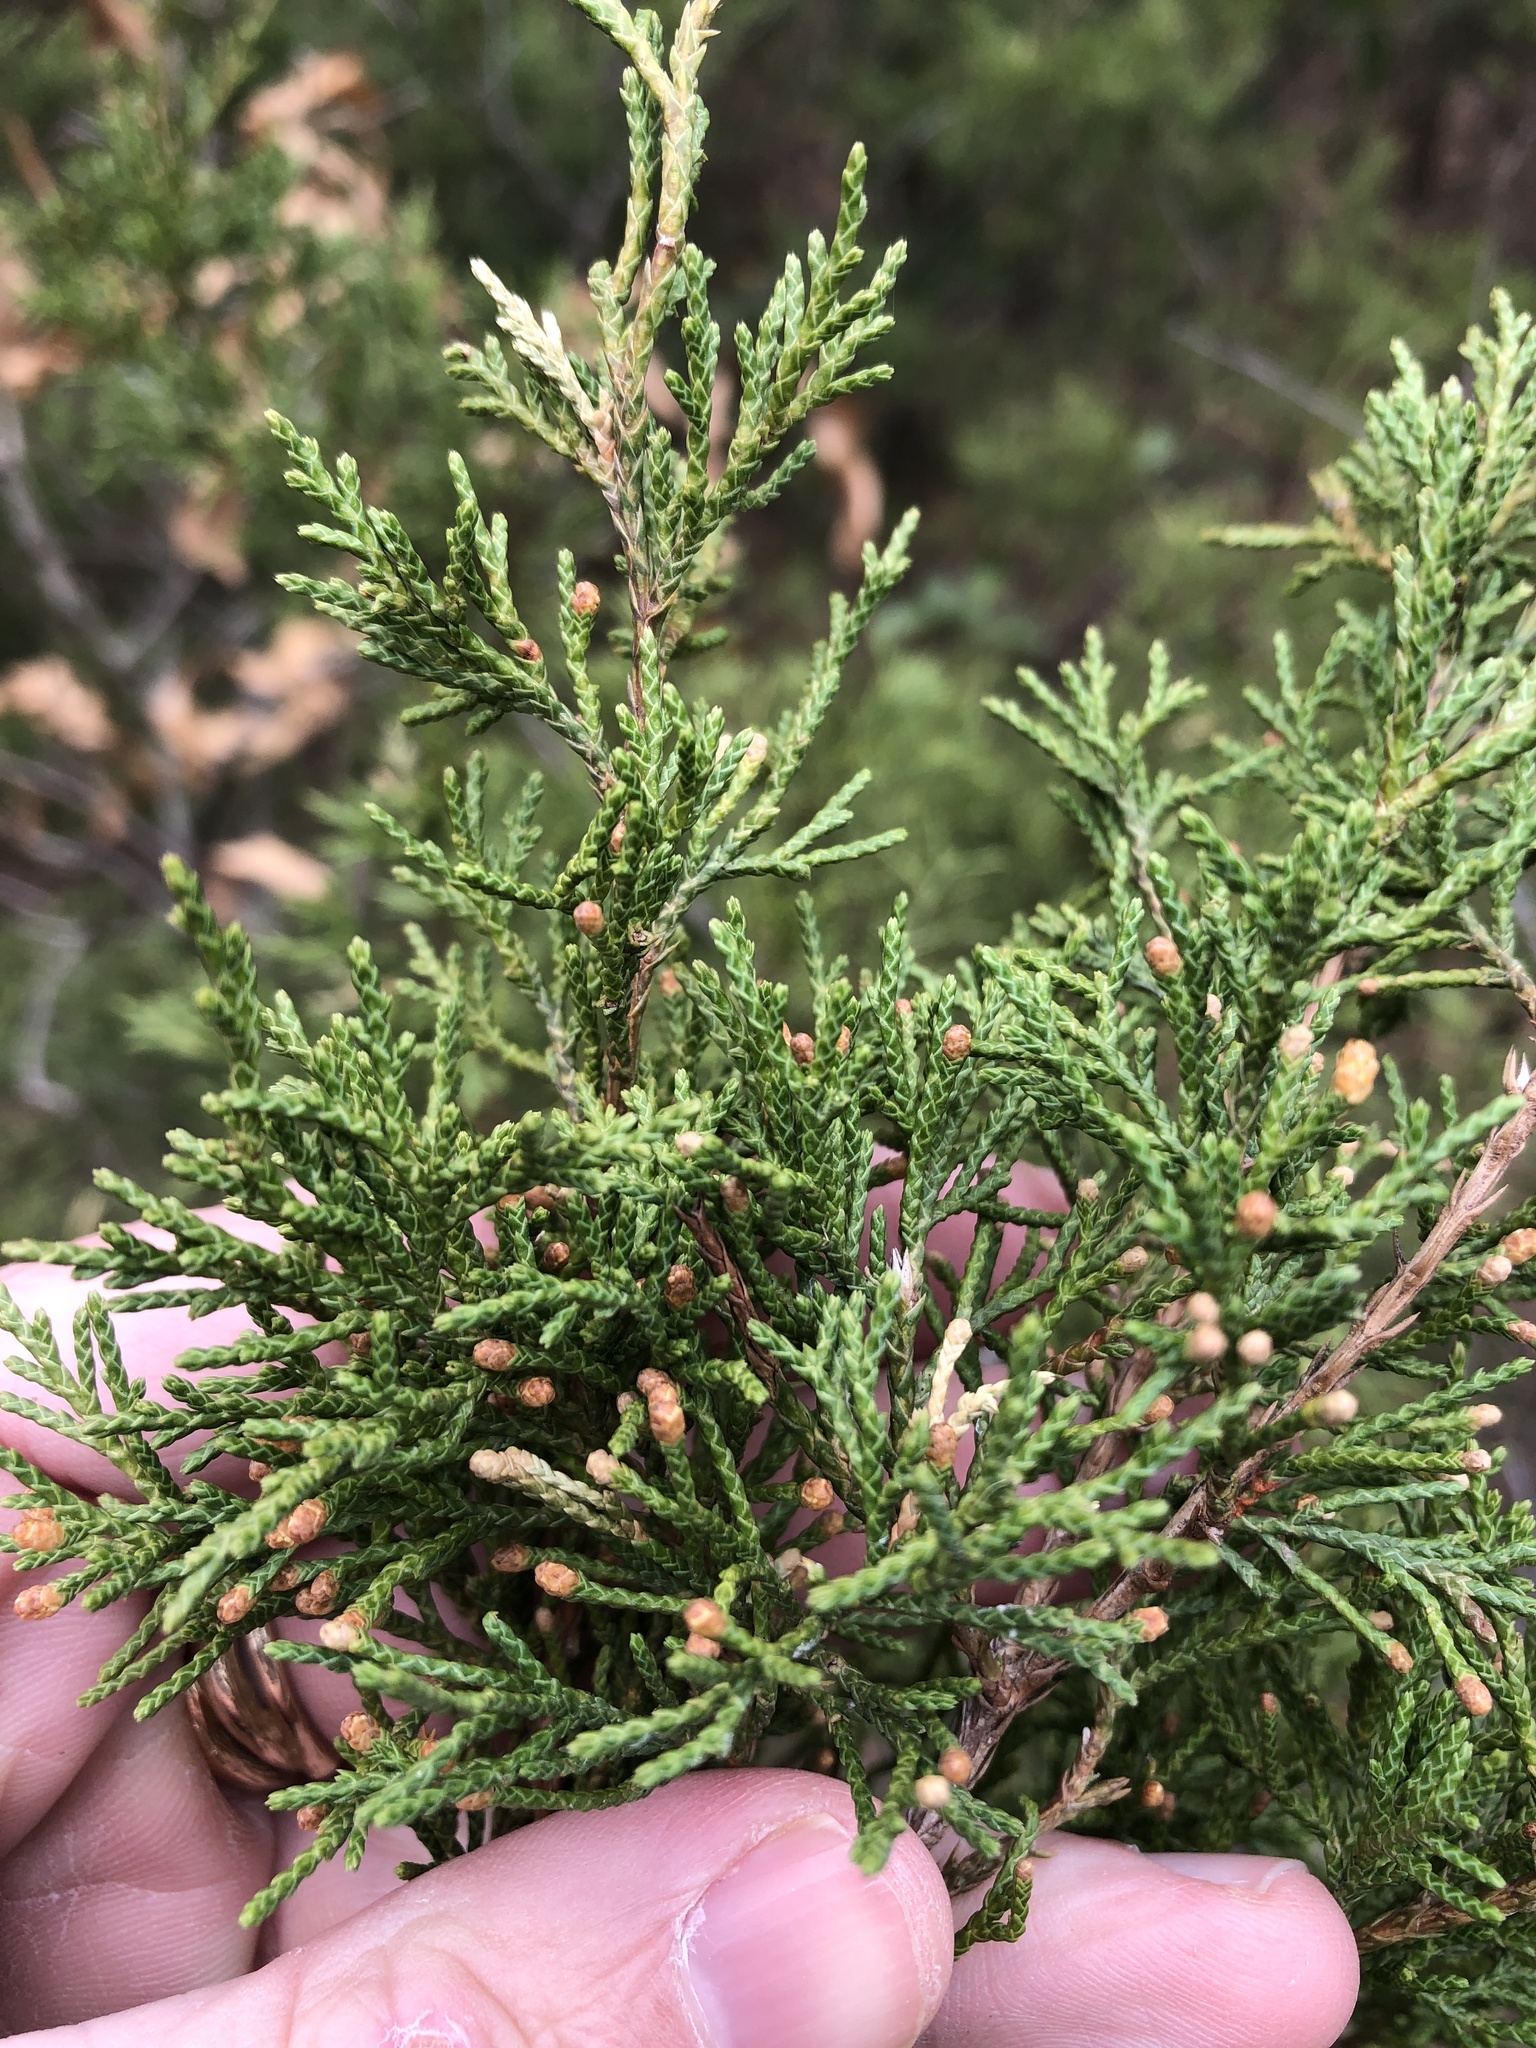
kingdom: Plantae
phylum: Tracheophyta
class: Pinopsida
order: Pinales
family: Cupressaceae
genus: Juniperus
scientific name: Juniperus virginiana
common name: Red juniper
